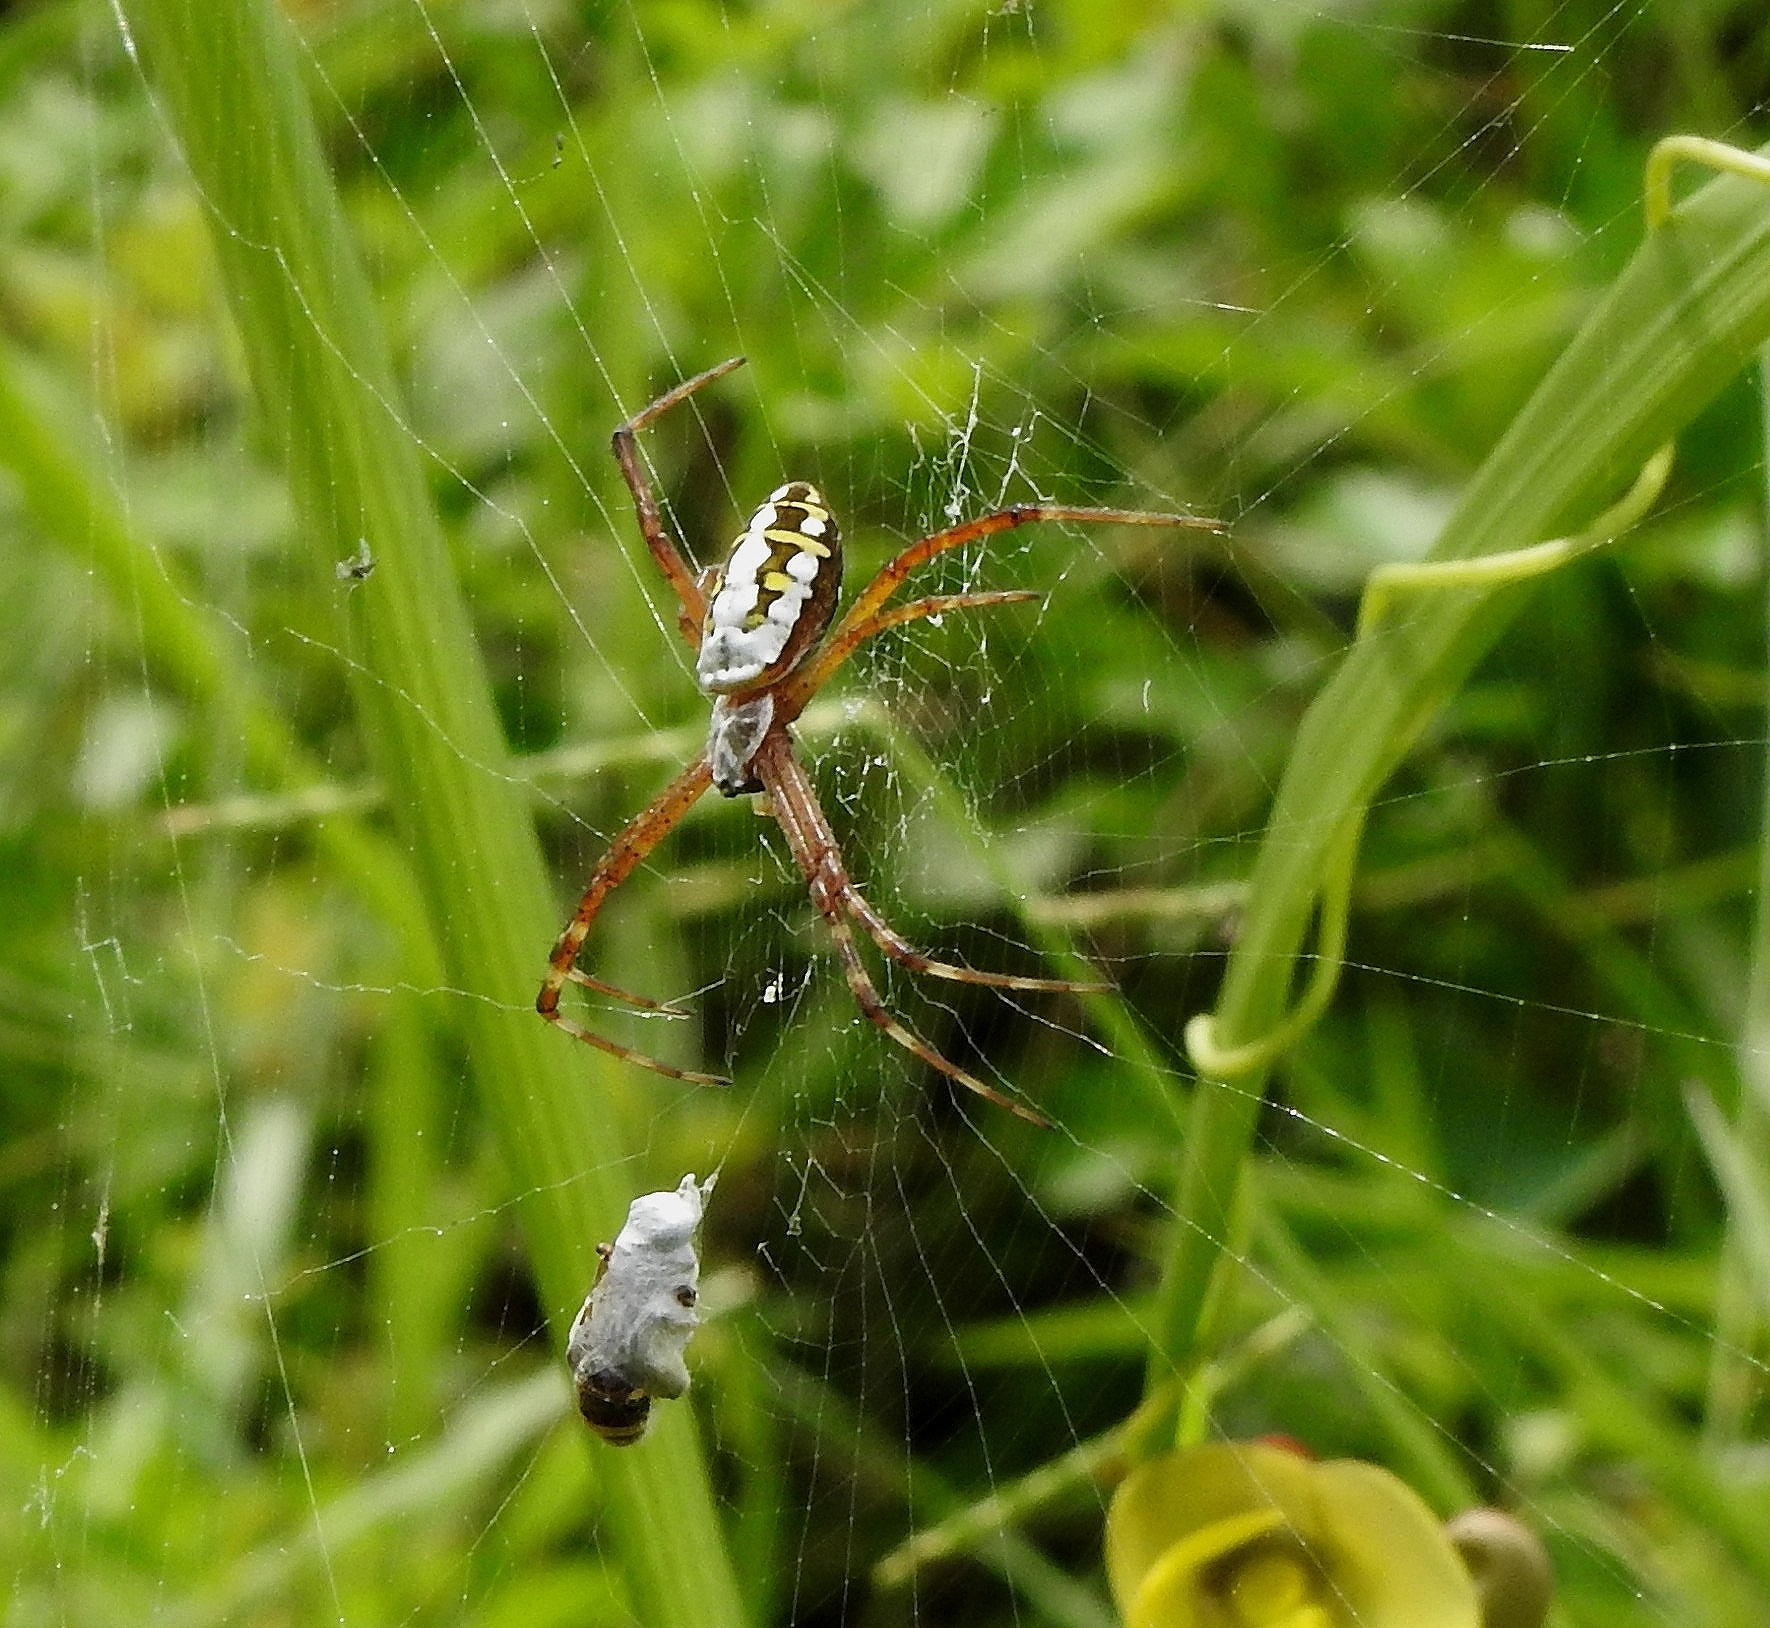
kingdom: Animalia
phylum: Arthropoda
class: Arachnida
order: Araneae
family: Araneidae
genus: Argiope
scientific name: Argiope catenulata
